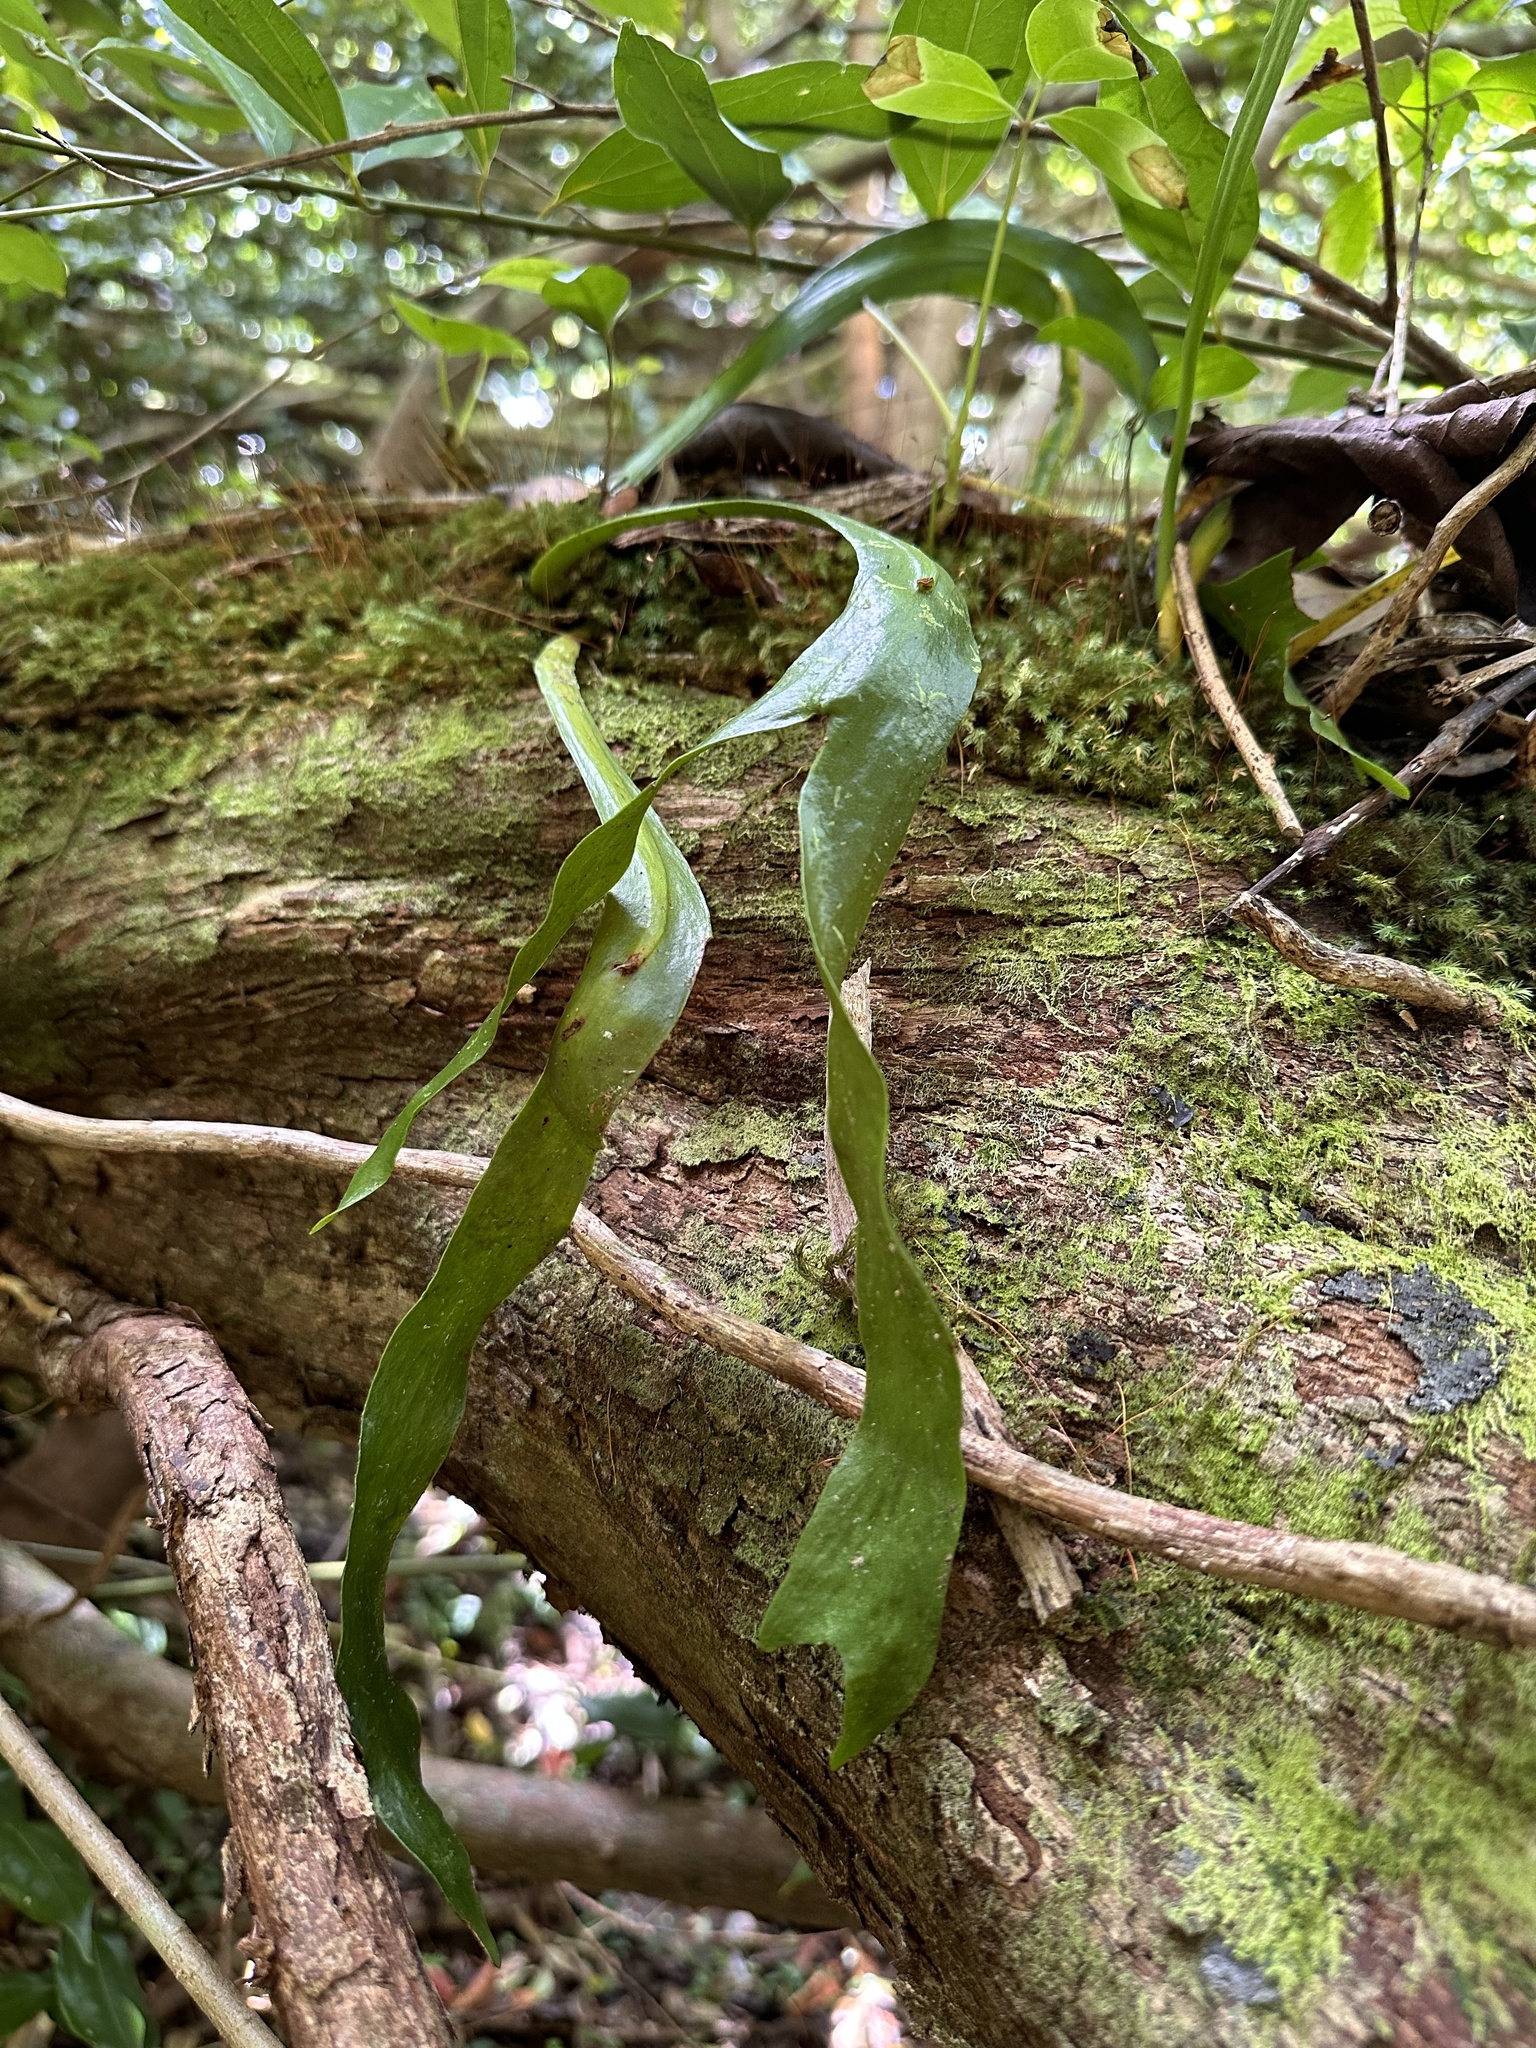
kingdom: Plantae
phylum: Tracheophyta
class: Polypodiopsida
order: Ophioglossales
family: Ophioglossaceae
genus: Ophioderma
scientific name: Ophioderma pendulum
